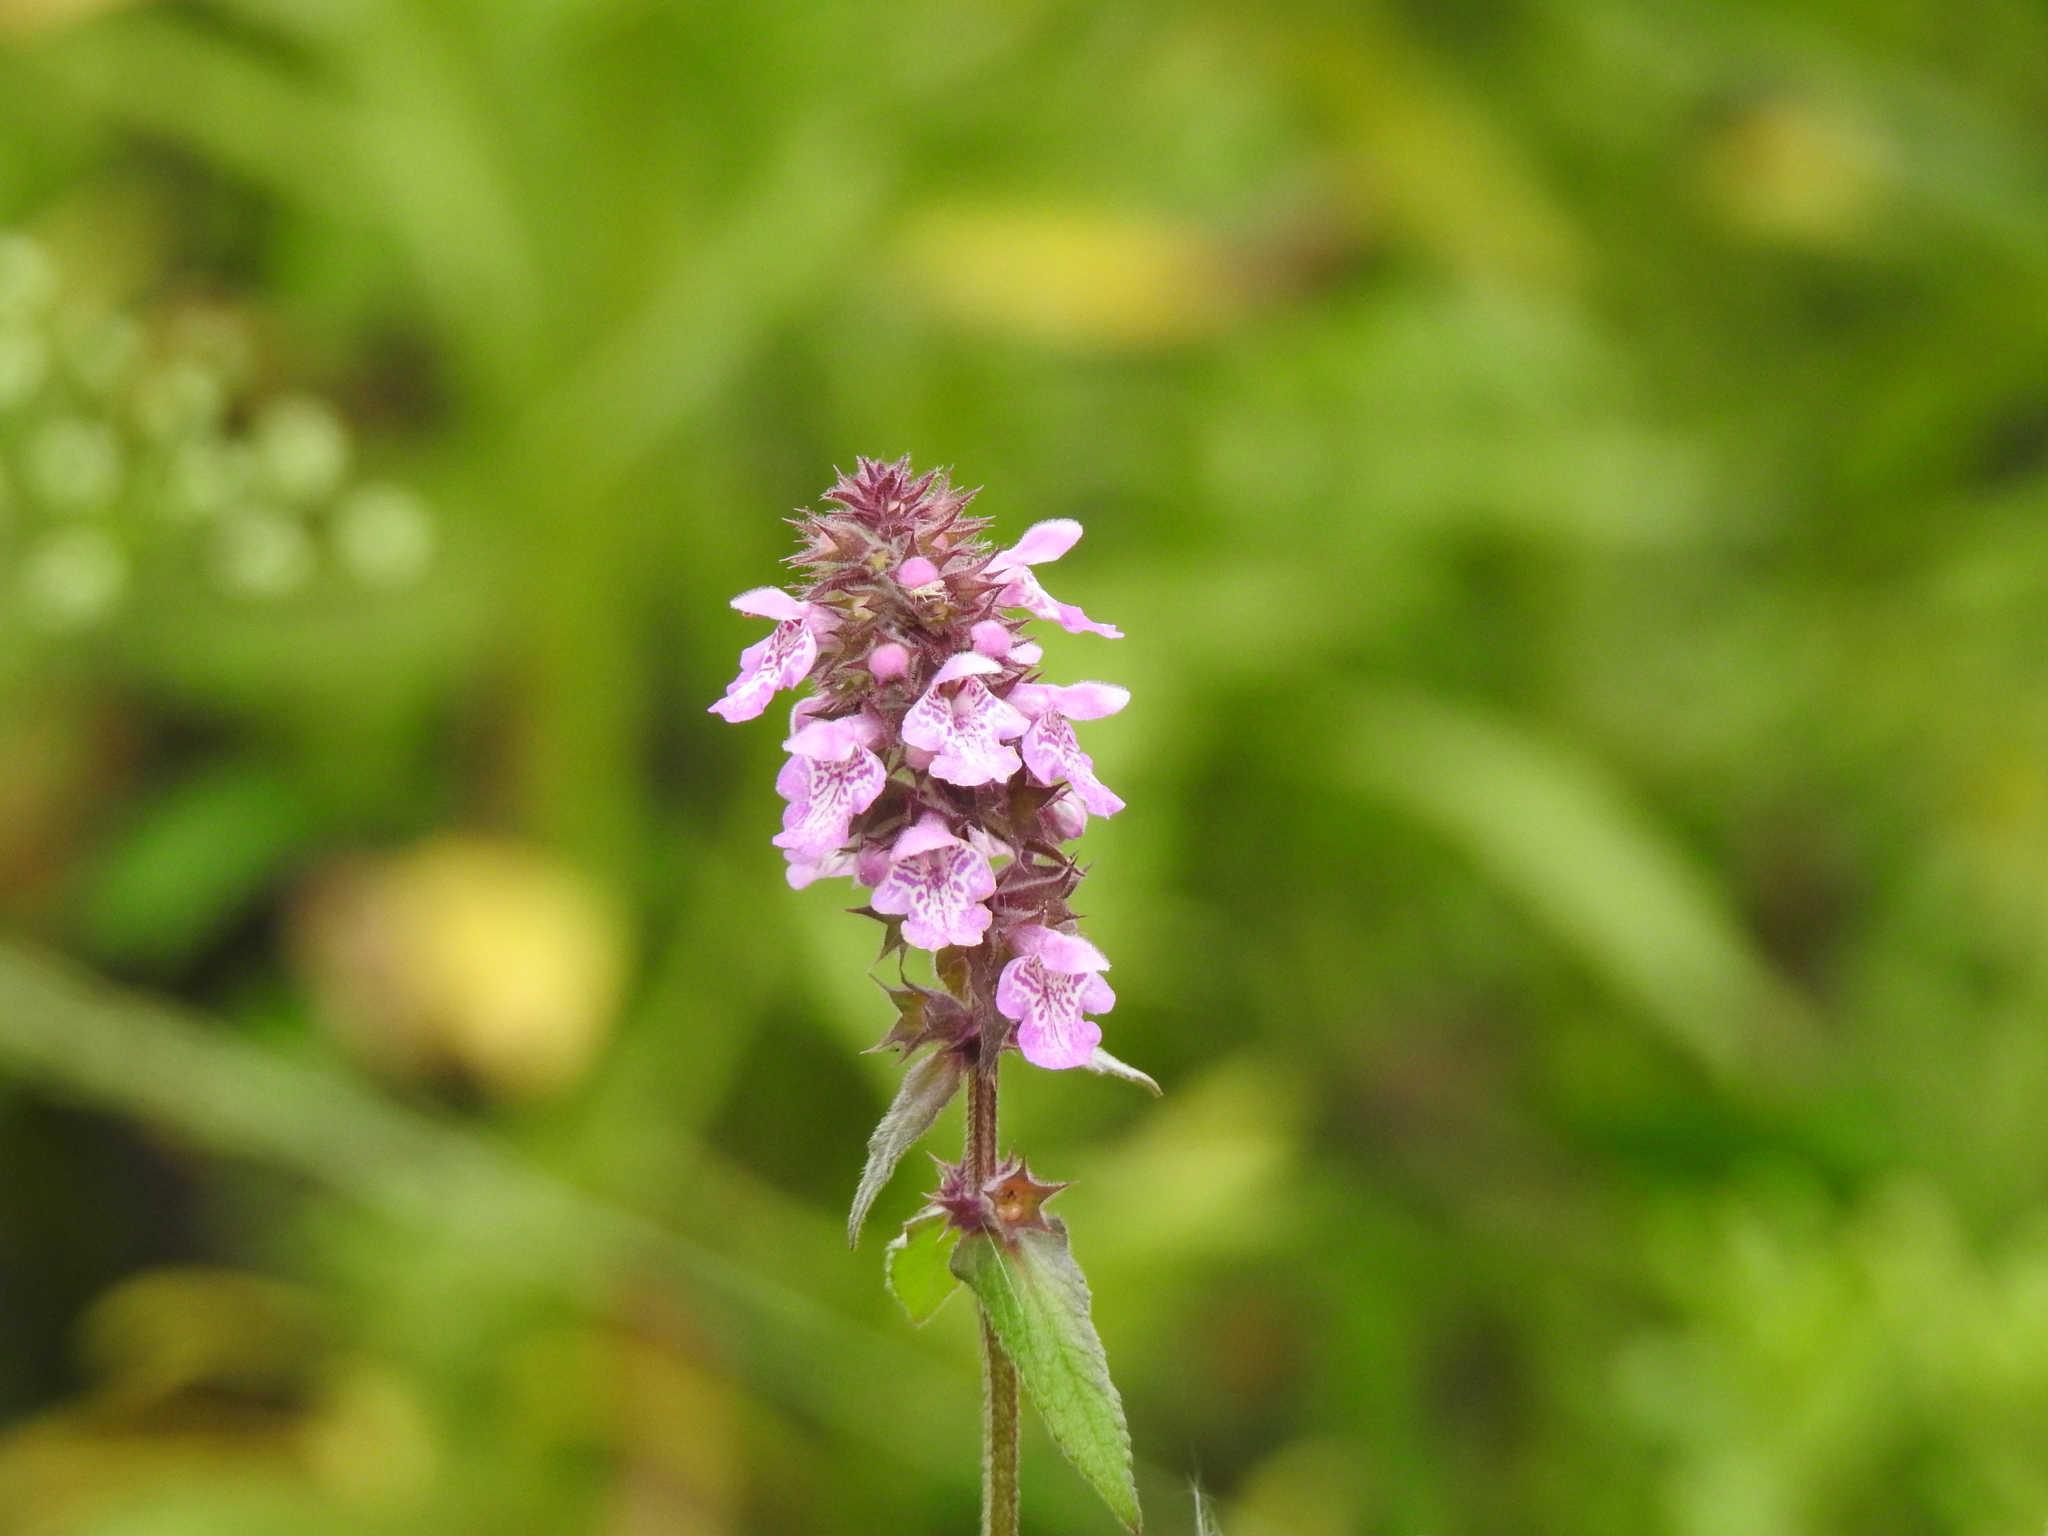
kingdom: Plantae
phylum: Tracheophyta
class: Magnoliopsida
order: Lamiales
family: Lamiaceae
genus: Stachys
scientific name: Stachys palustris
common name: Marsh woundwort
